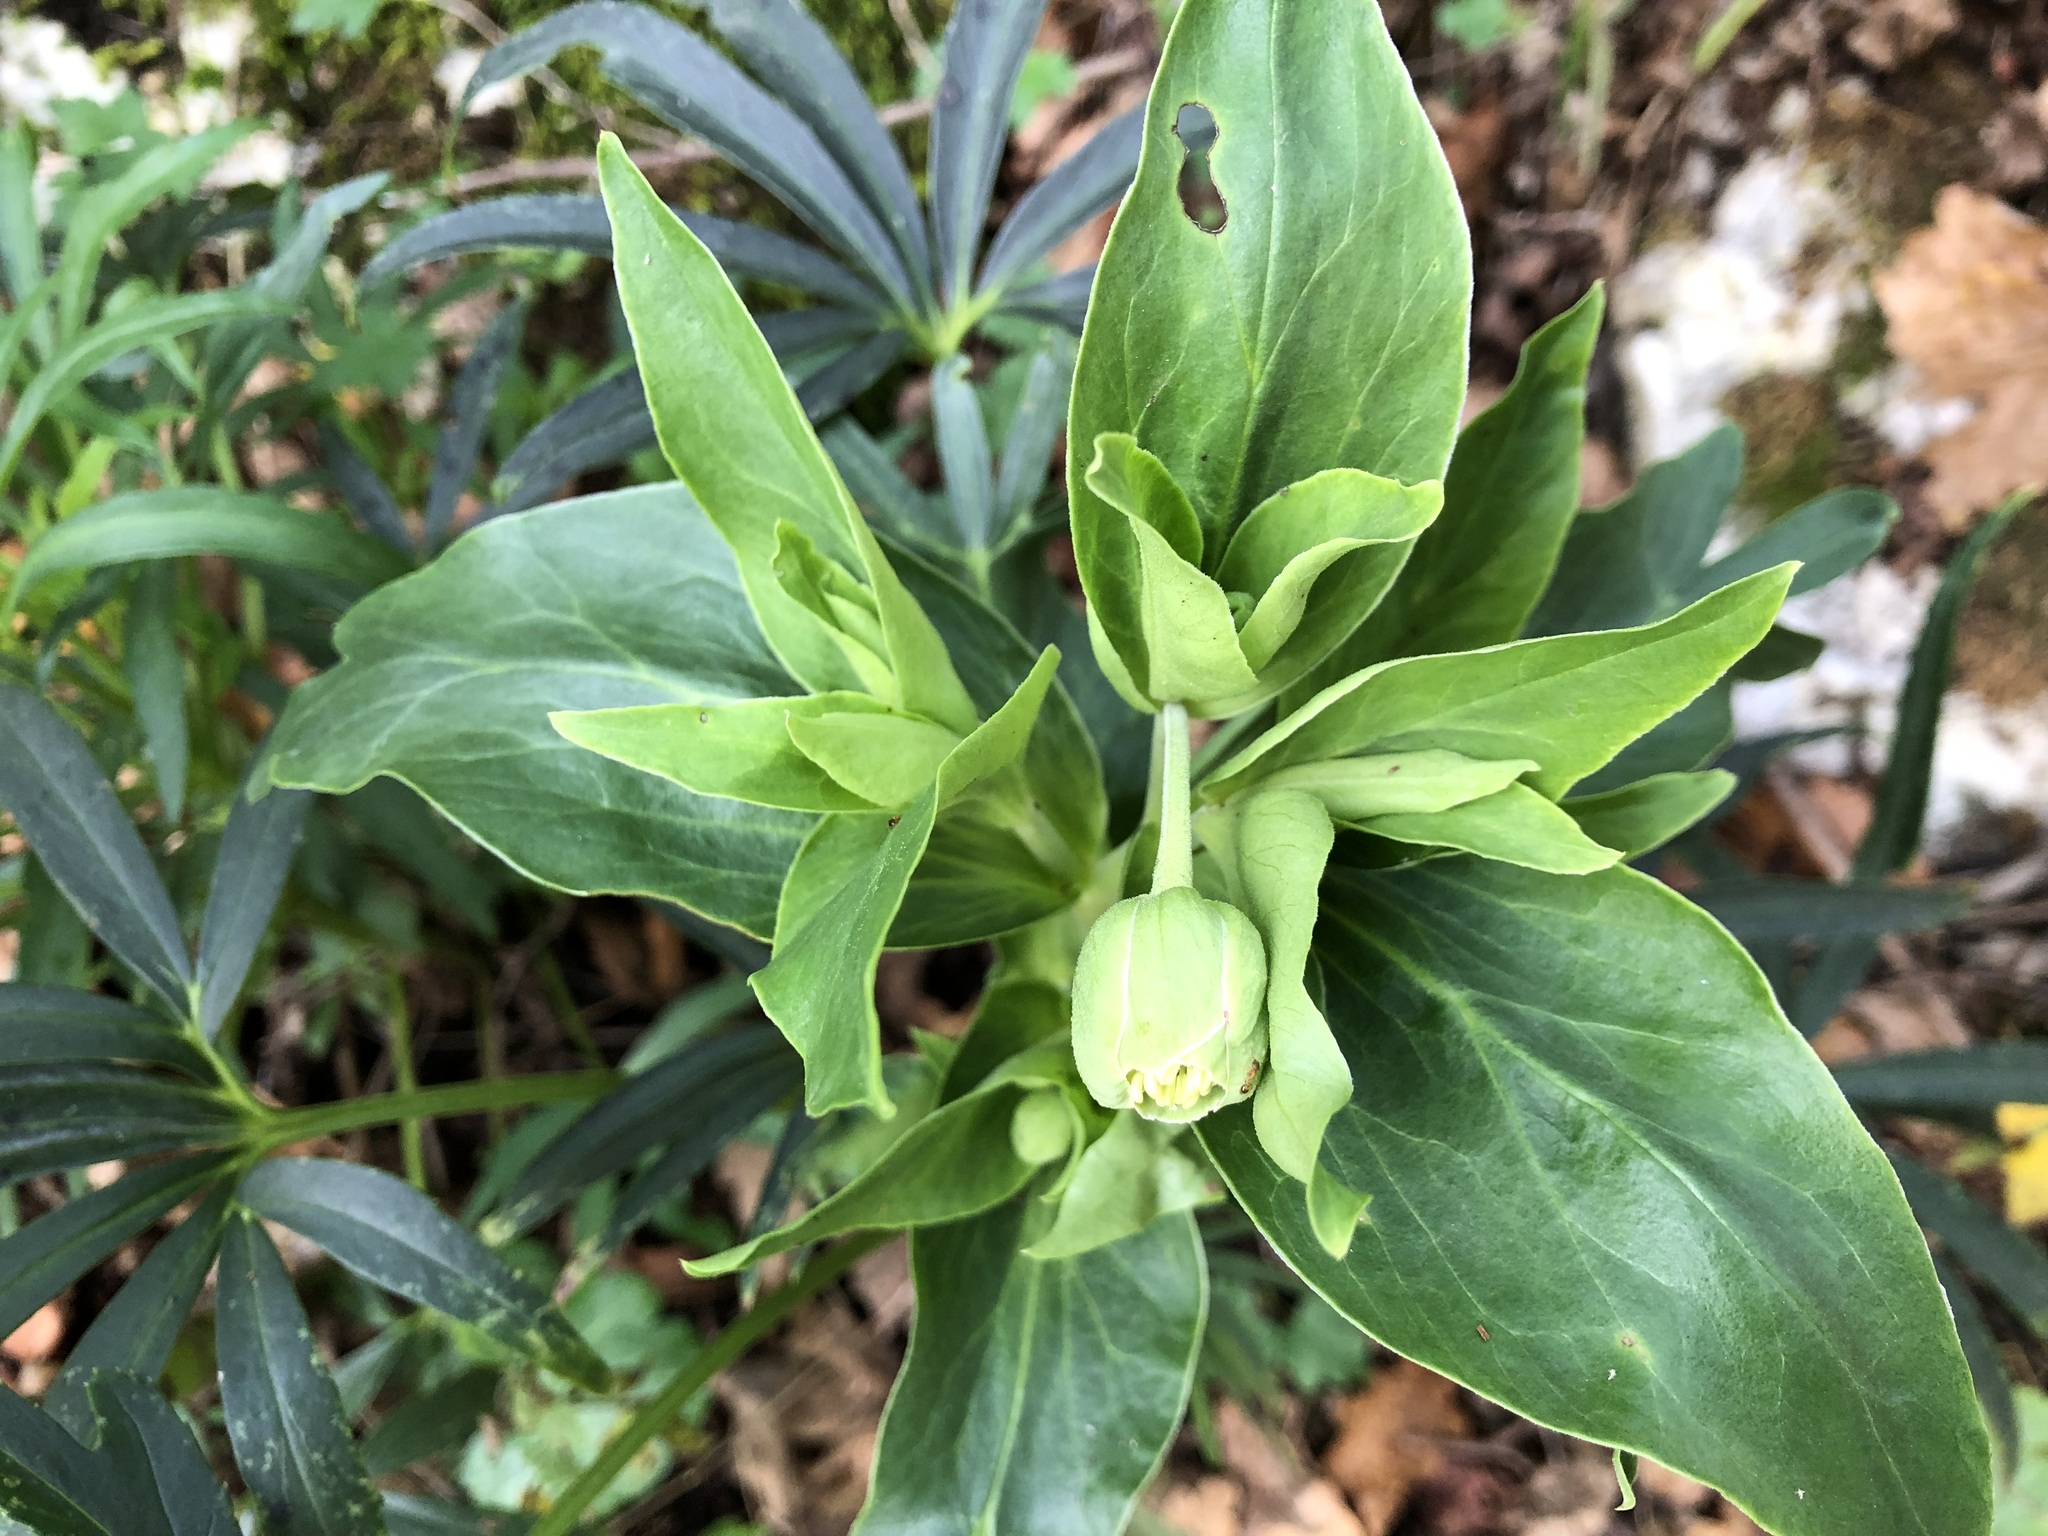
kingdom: Plantae
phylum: Tracheophyta
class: Magnoliopsida
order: Ranunculales
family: Ranunculaceae
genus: Helleborus
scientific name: Helleborus foetidus
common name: Stinking hellebore
